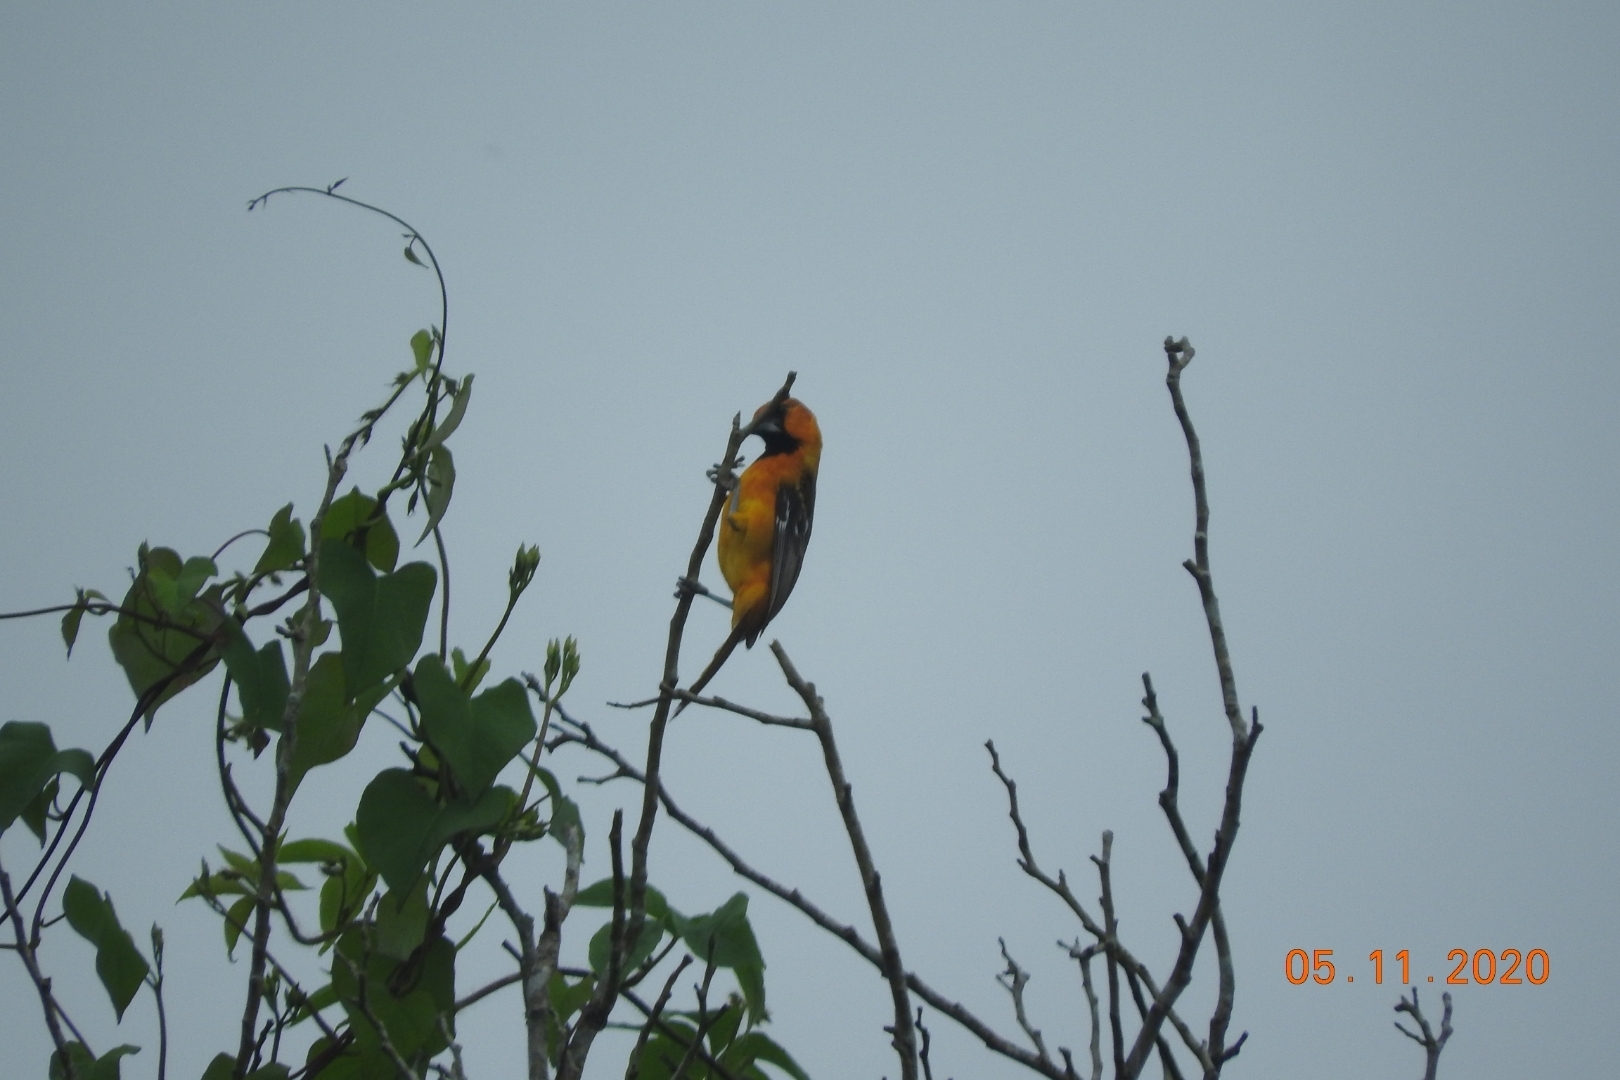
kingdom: Animalia
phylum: Chordata
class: Aves
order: Passeriformes
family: Icteridae
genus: Icterus
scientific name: Icterus gularis
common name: Altamira oriole
